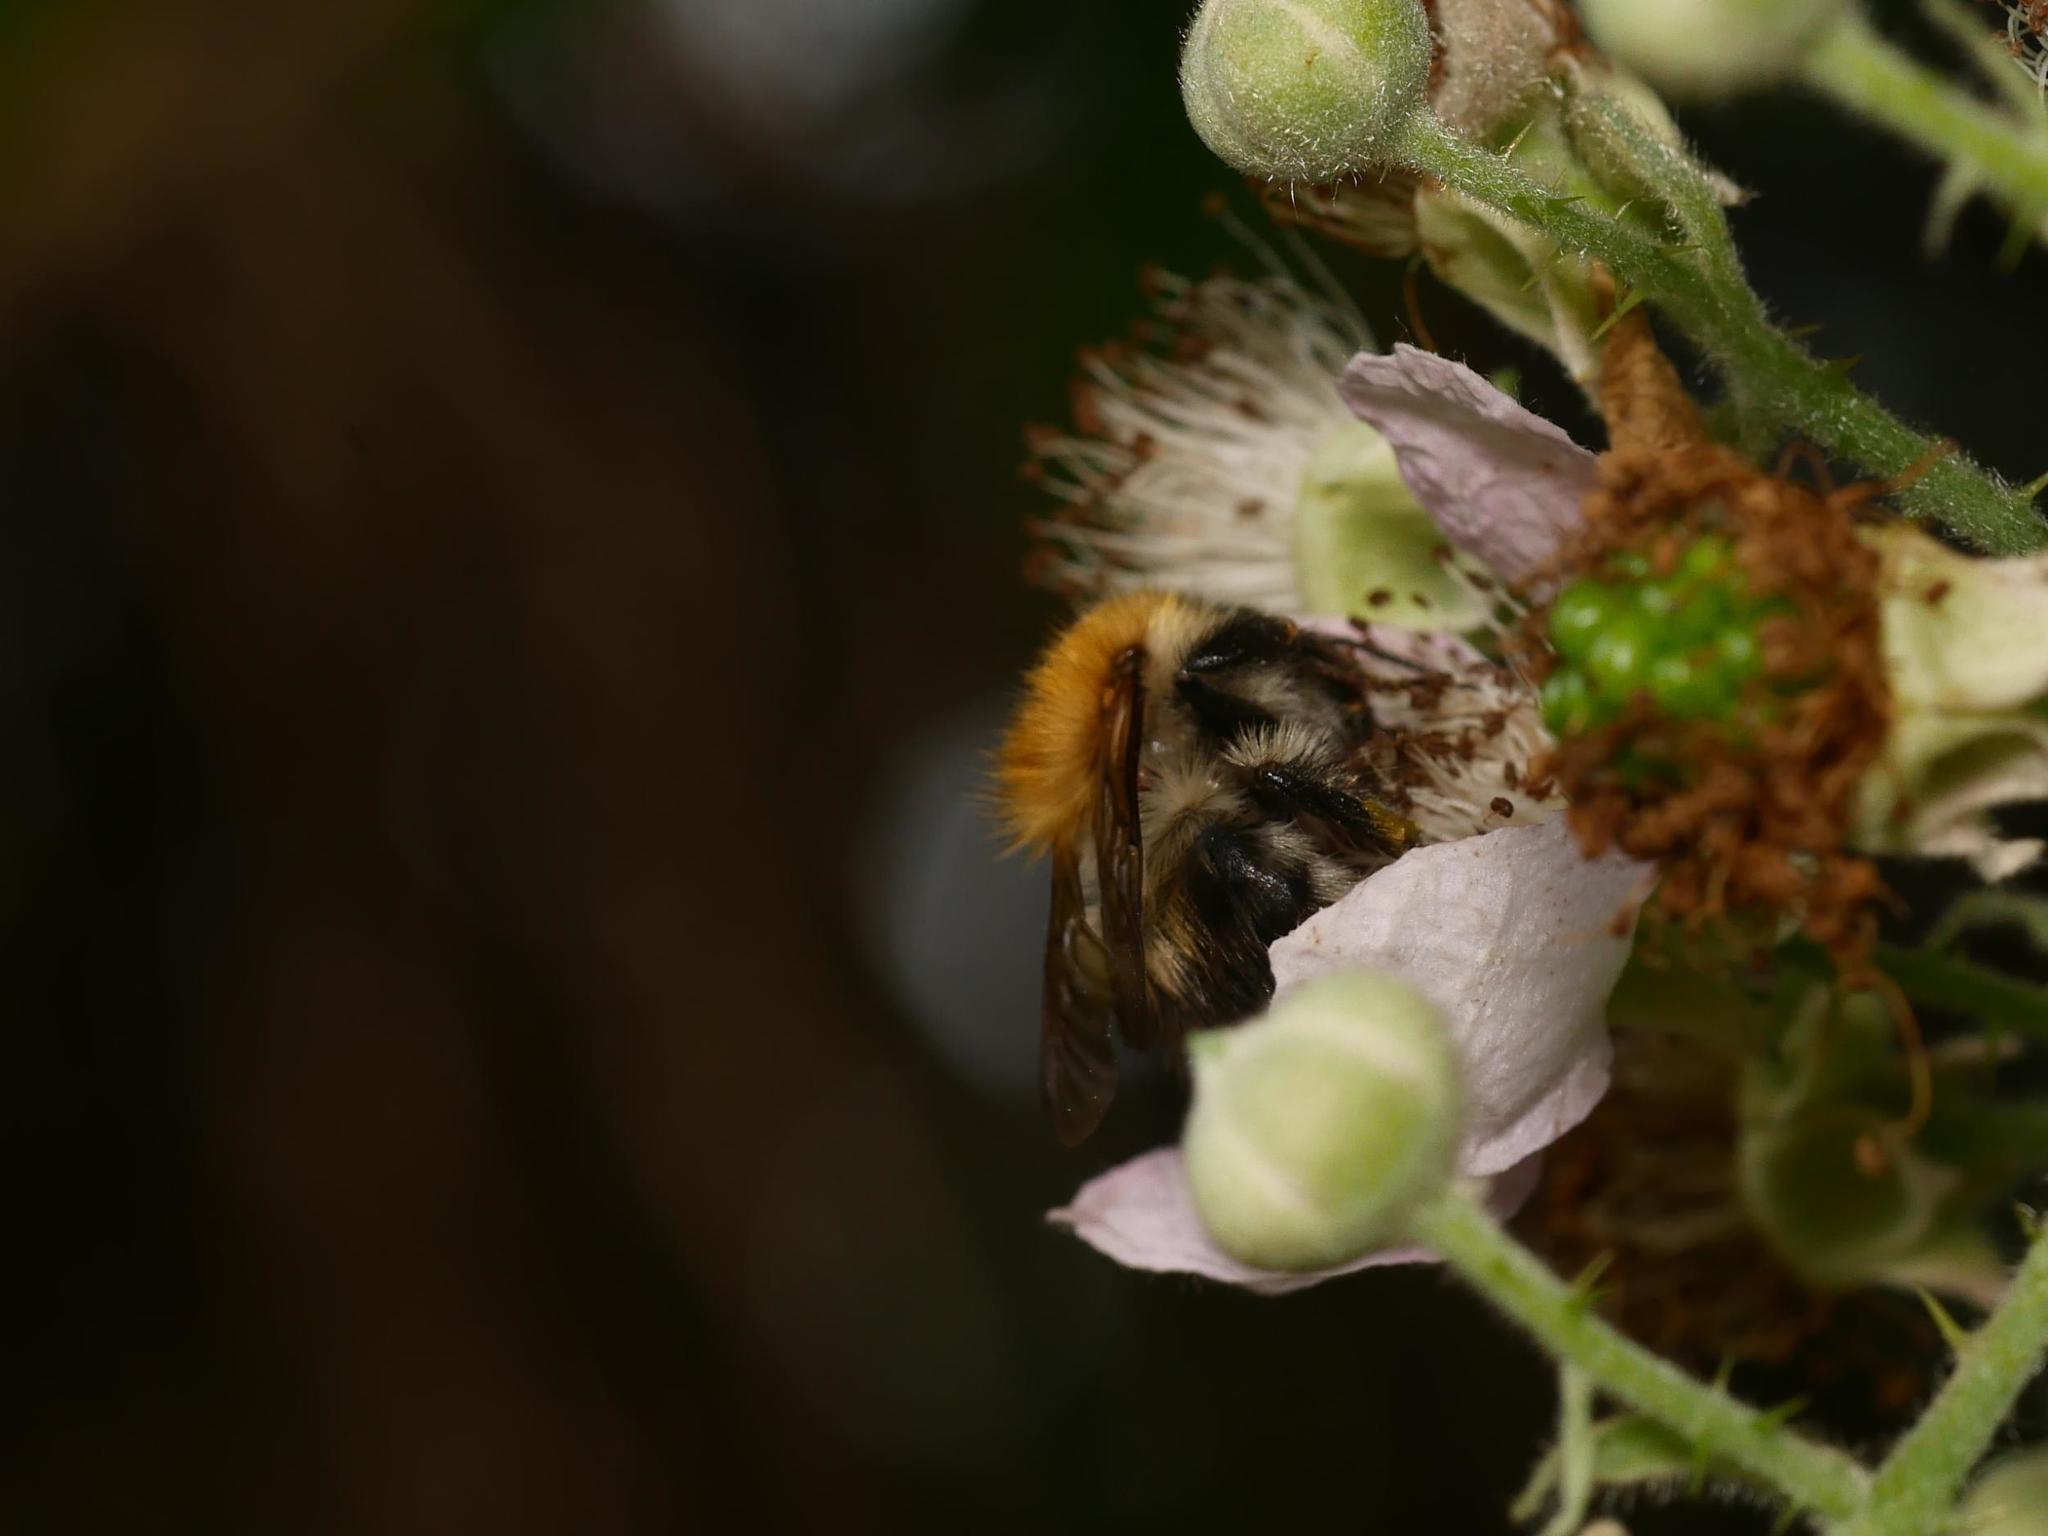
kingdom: Animalia
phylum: Arthropoda
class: Insecta
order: Hymenoptera
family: Apidae
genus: Bombus
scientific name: Bombus pascuorum
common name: Common carder bee
